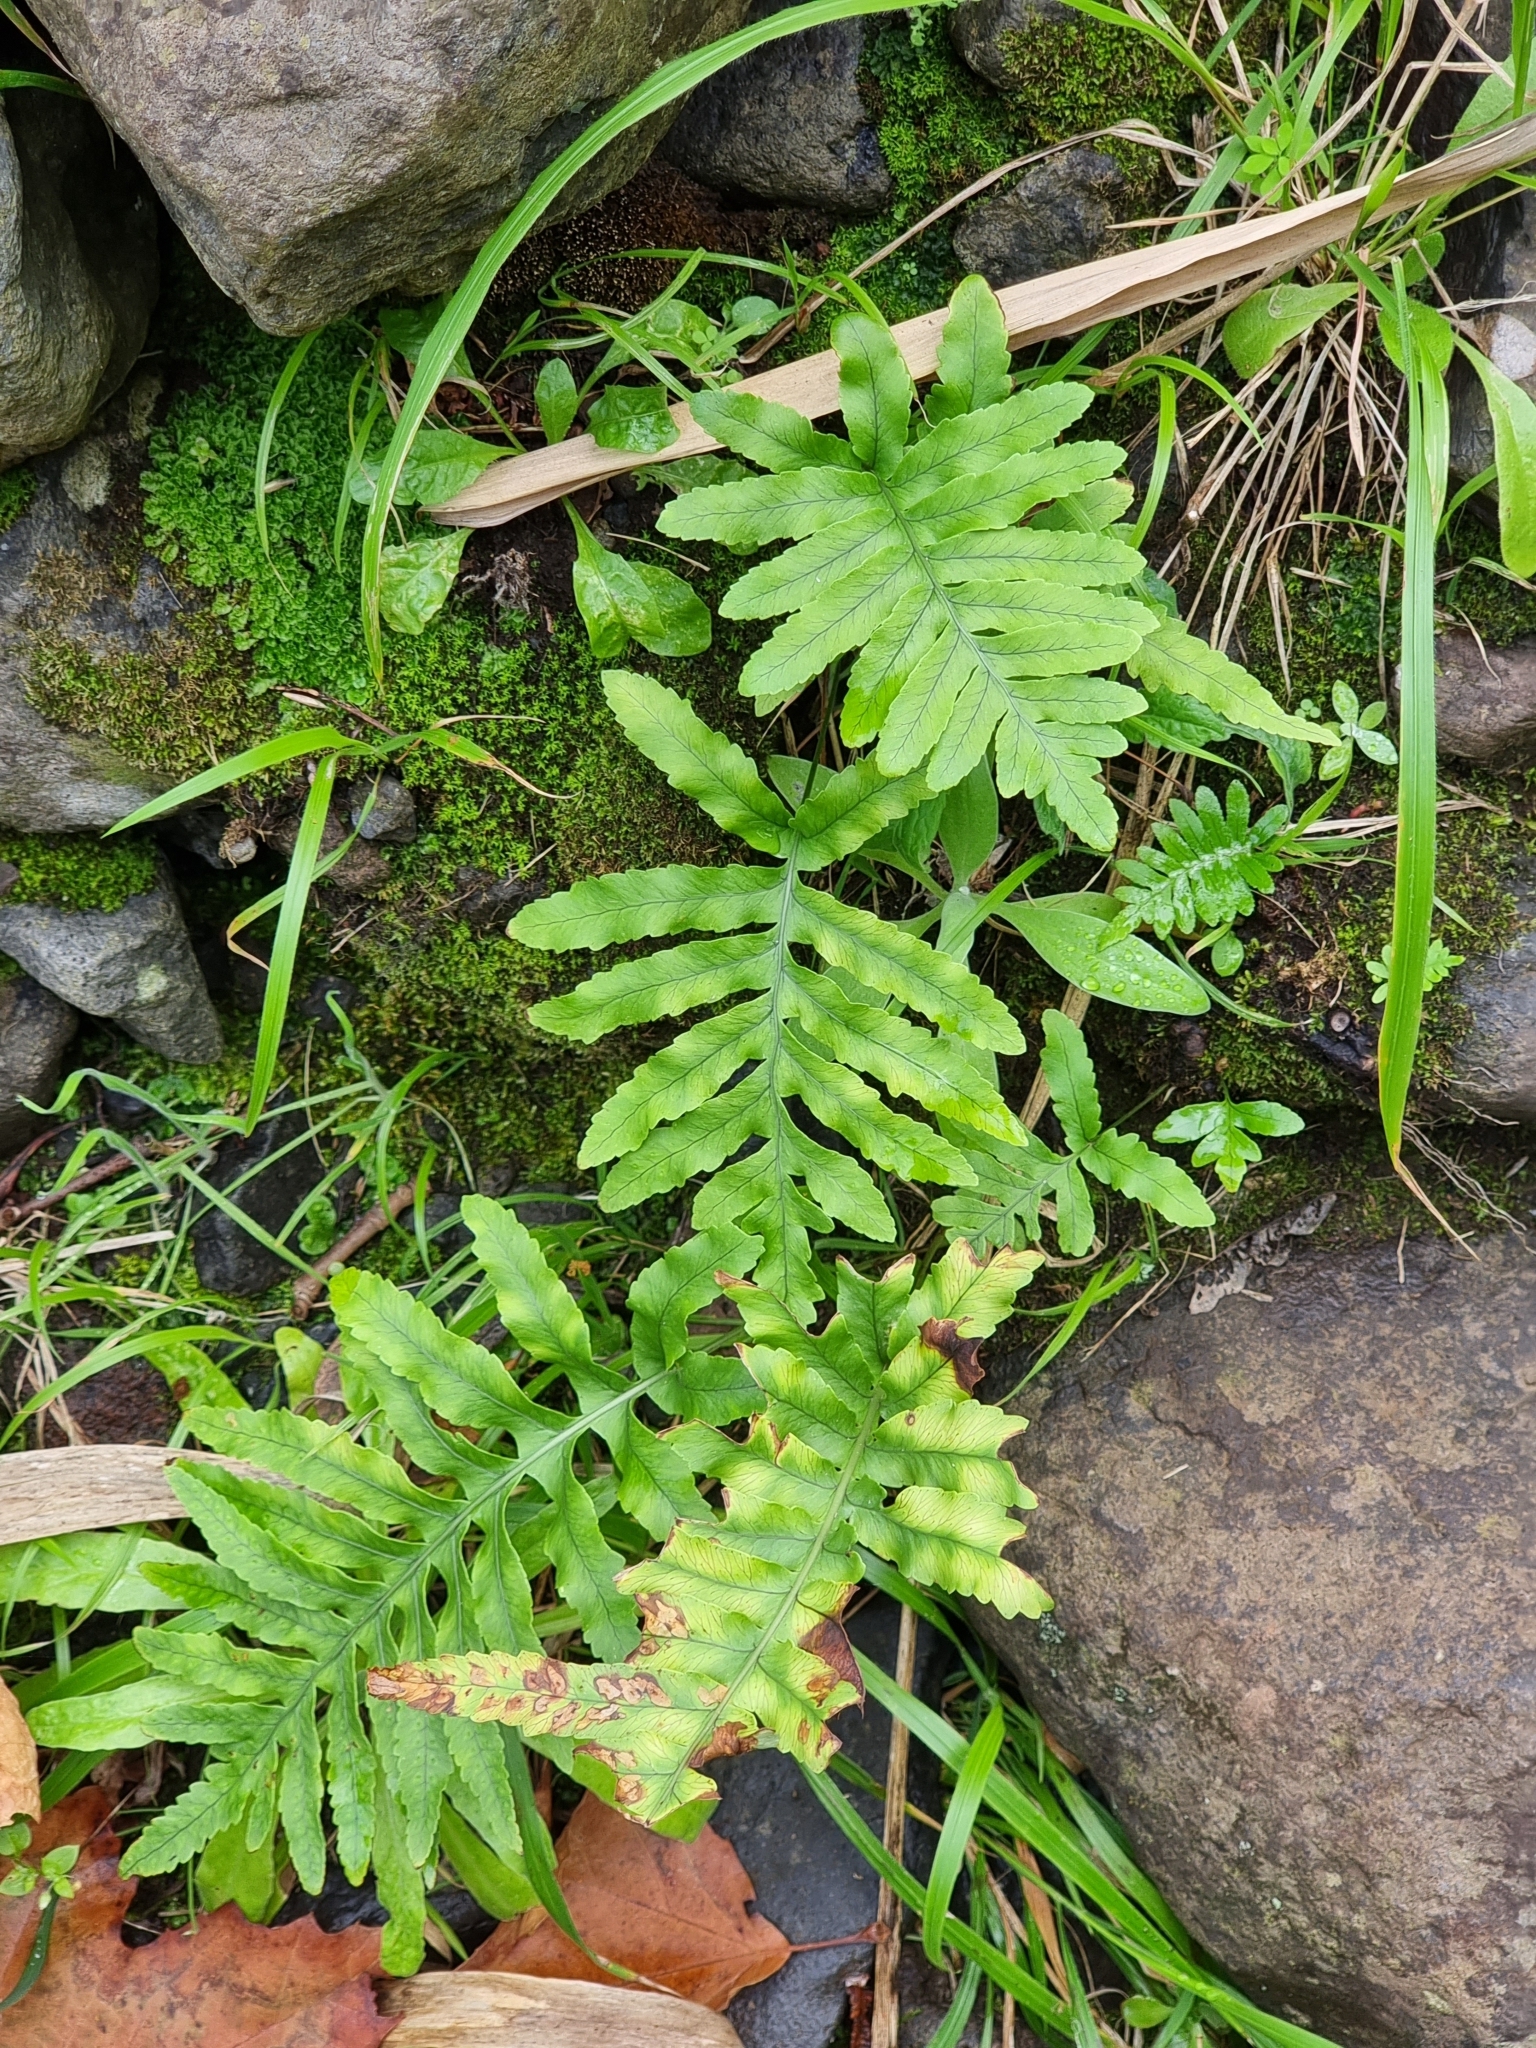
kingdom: Plantae
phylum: Tracheophyta
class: Polypodiopsida
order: Polypodiales
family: Polypodiaceae
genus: Polypodium
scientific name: Polypodium macaronesicum
